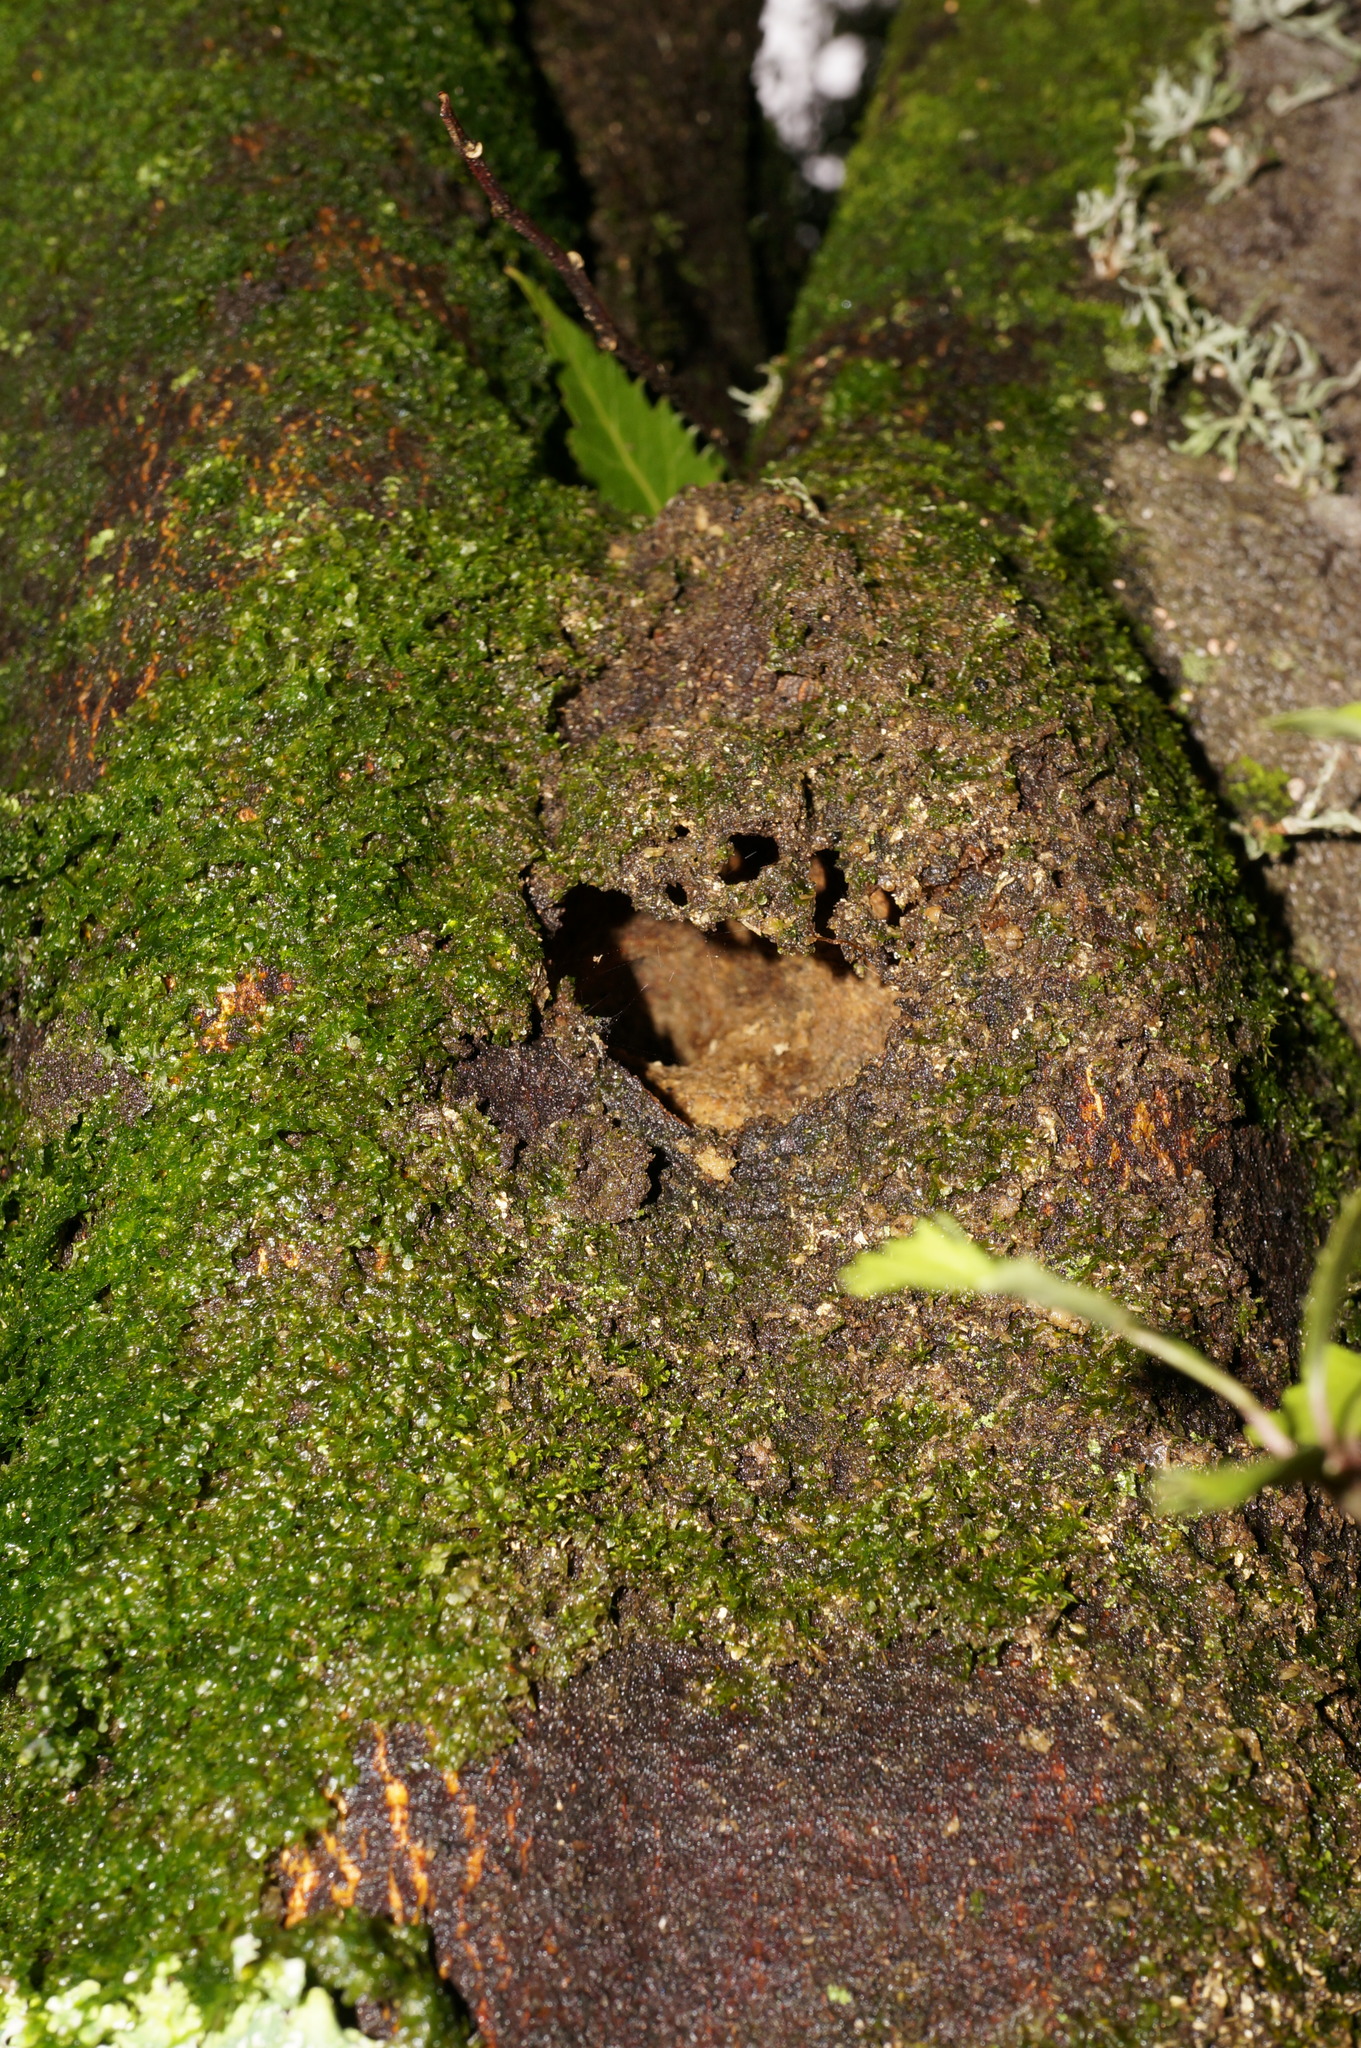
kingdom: Animalia
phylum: Arthropoda
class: Insecta
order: Lepidoptera
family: Hepialidae
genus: Aenetus
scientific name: Aenetus virescens
